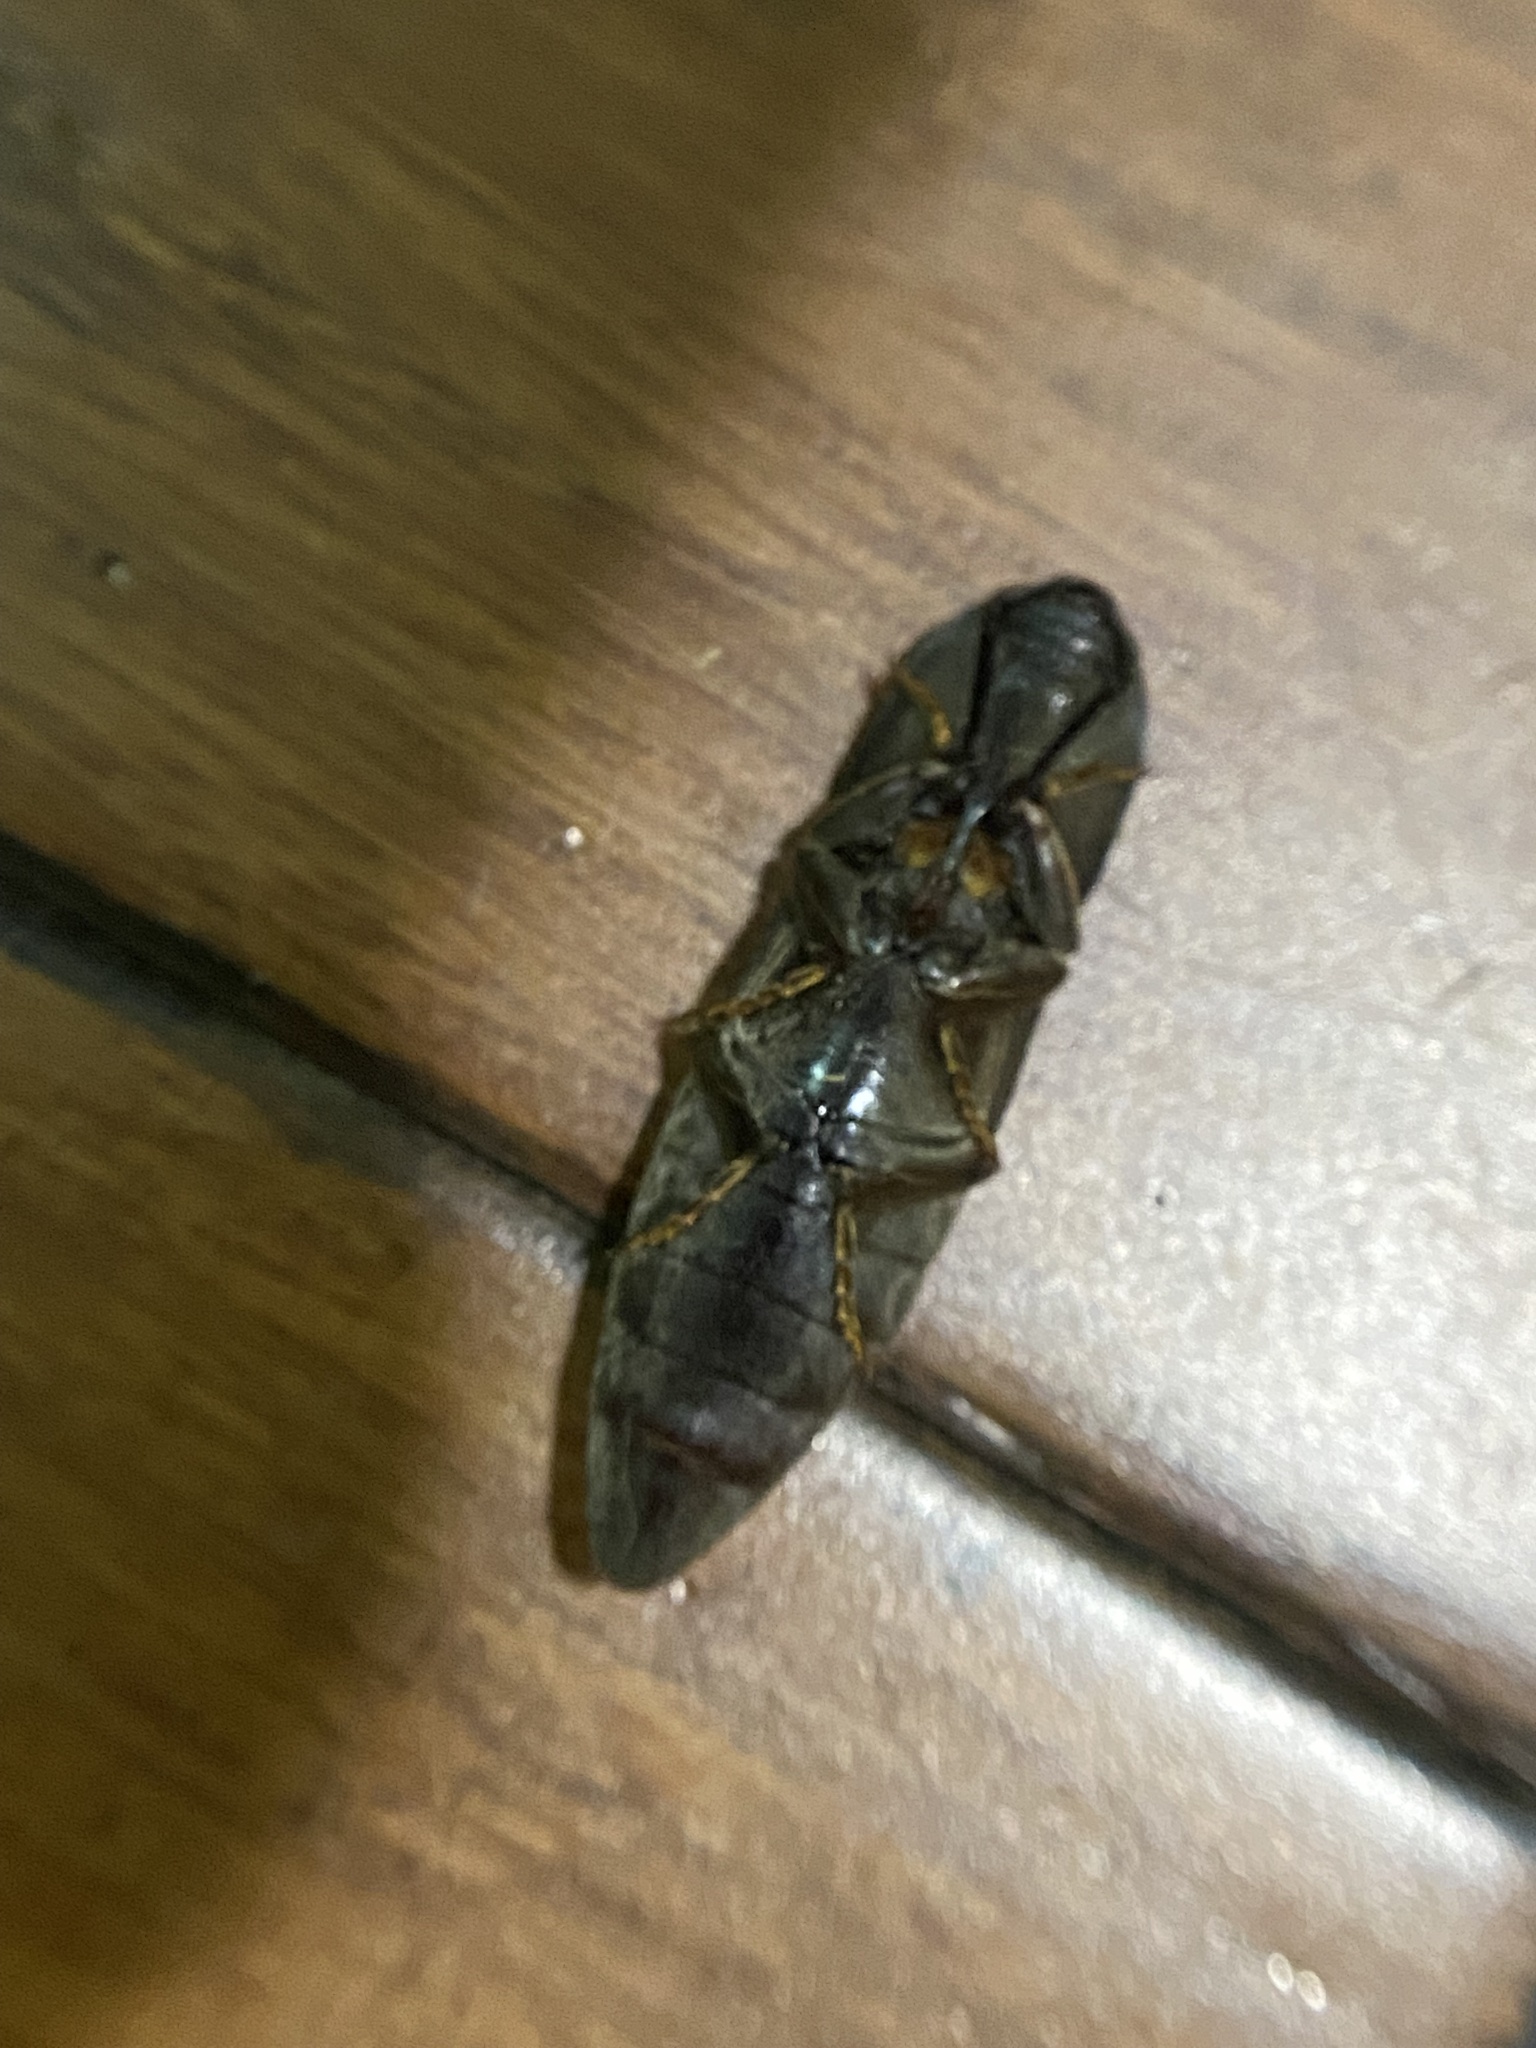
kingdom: Animalia
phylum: Arthropoda
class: Insecta
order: Coleoptera
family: Elateridae
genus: Lanelater
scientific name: Lanelater
